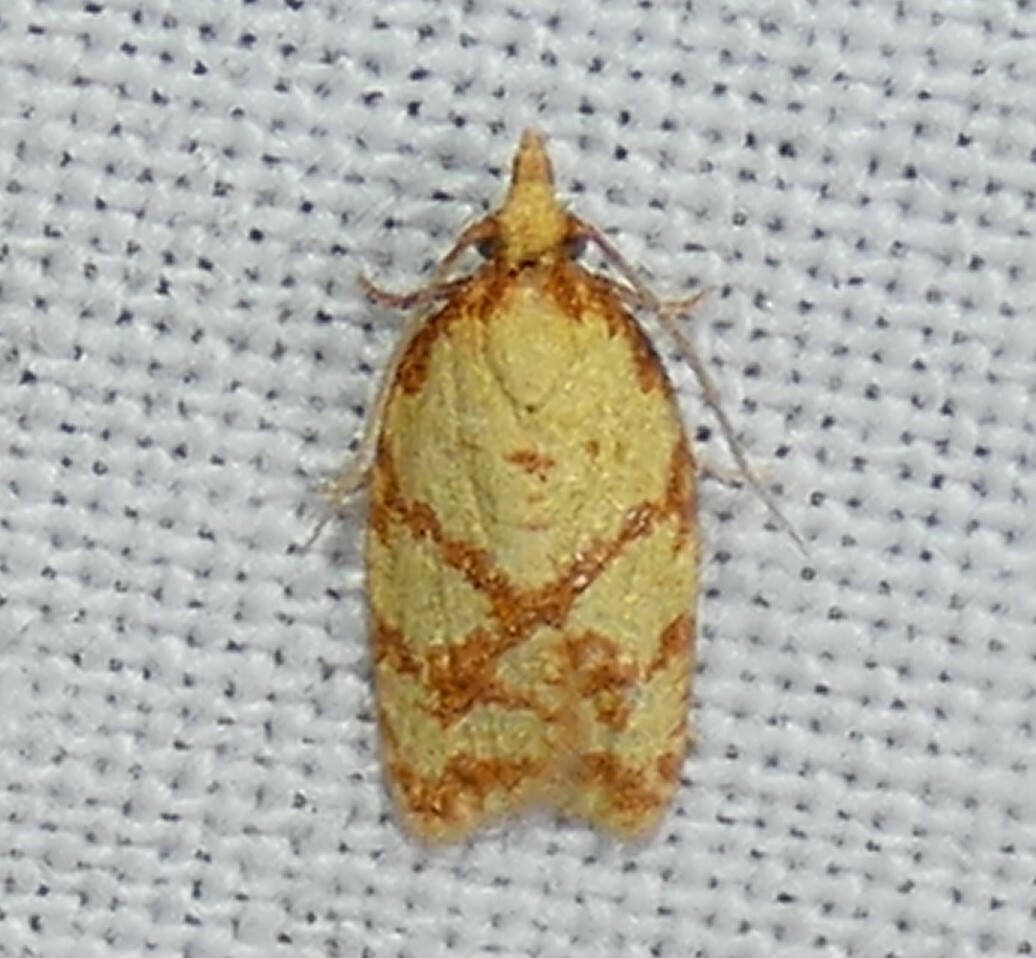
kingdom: Animalia
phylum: Arthropoda
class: Insecta
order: Lepidoptera
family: Tortricidae
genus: Sparganothis
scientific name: Sparganothis sulfureana
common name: Sparganothis fruitworm moth
